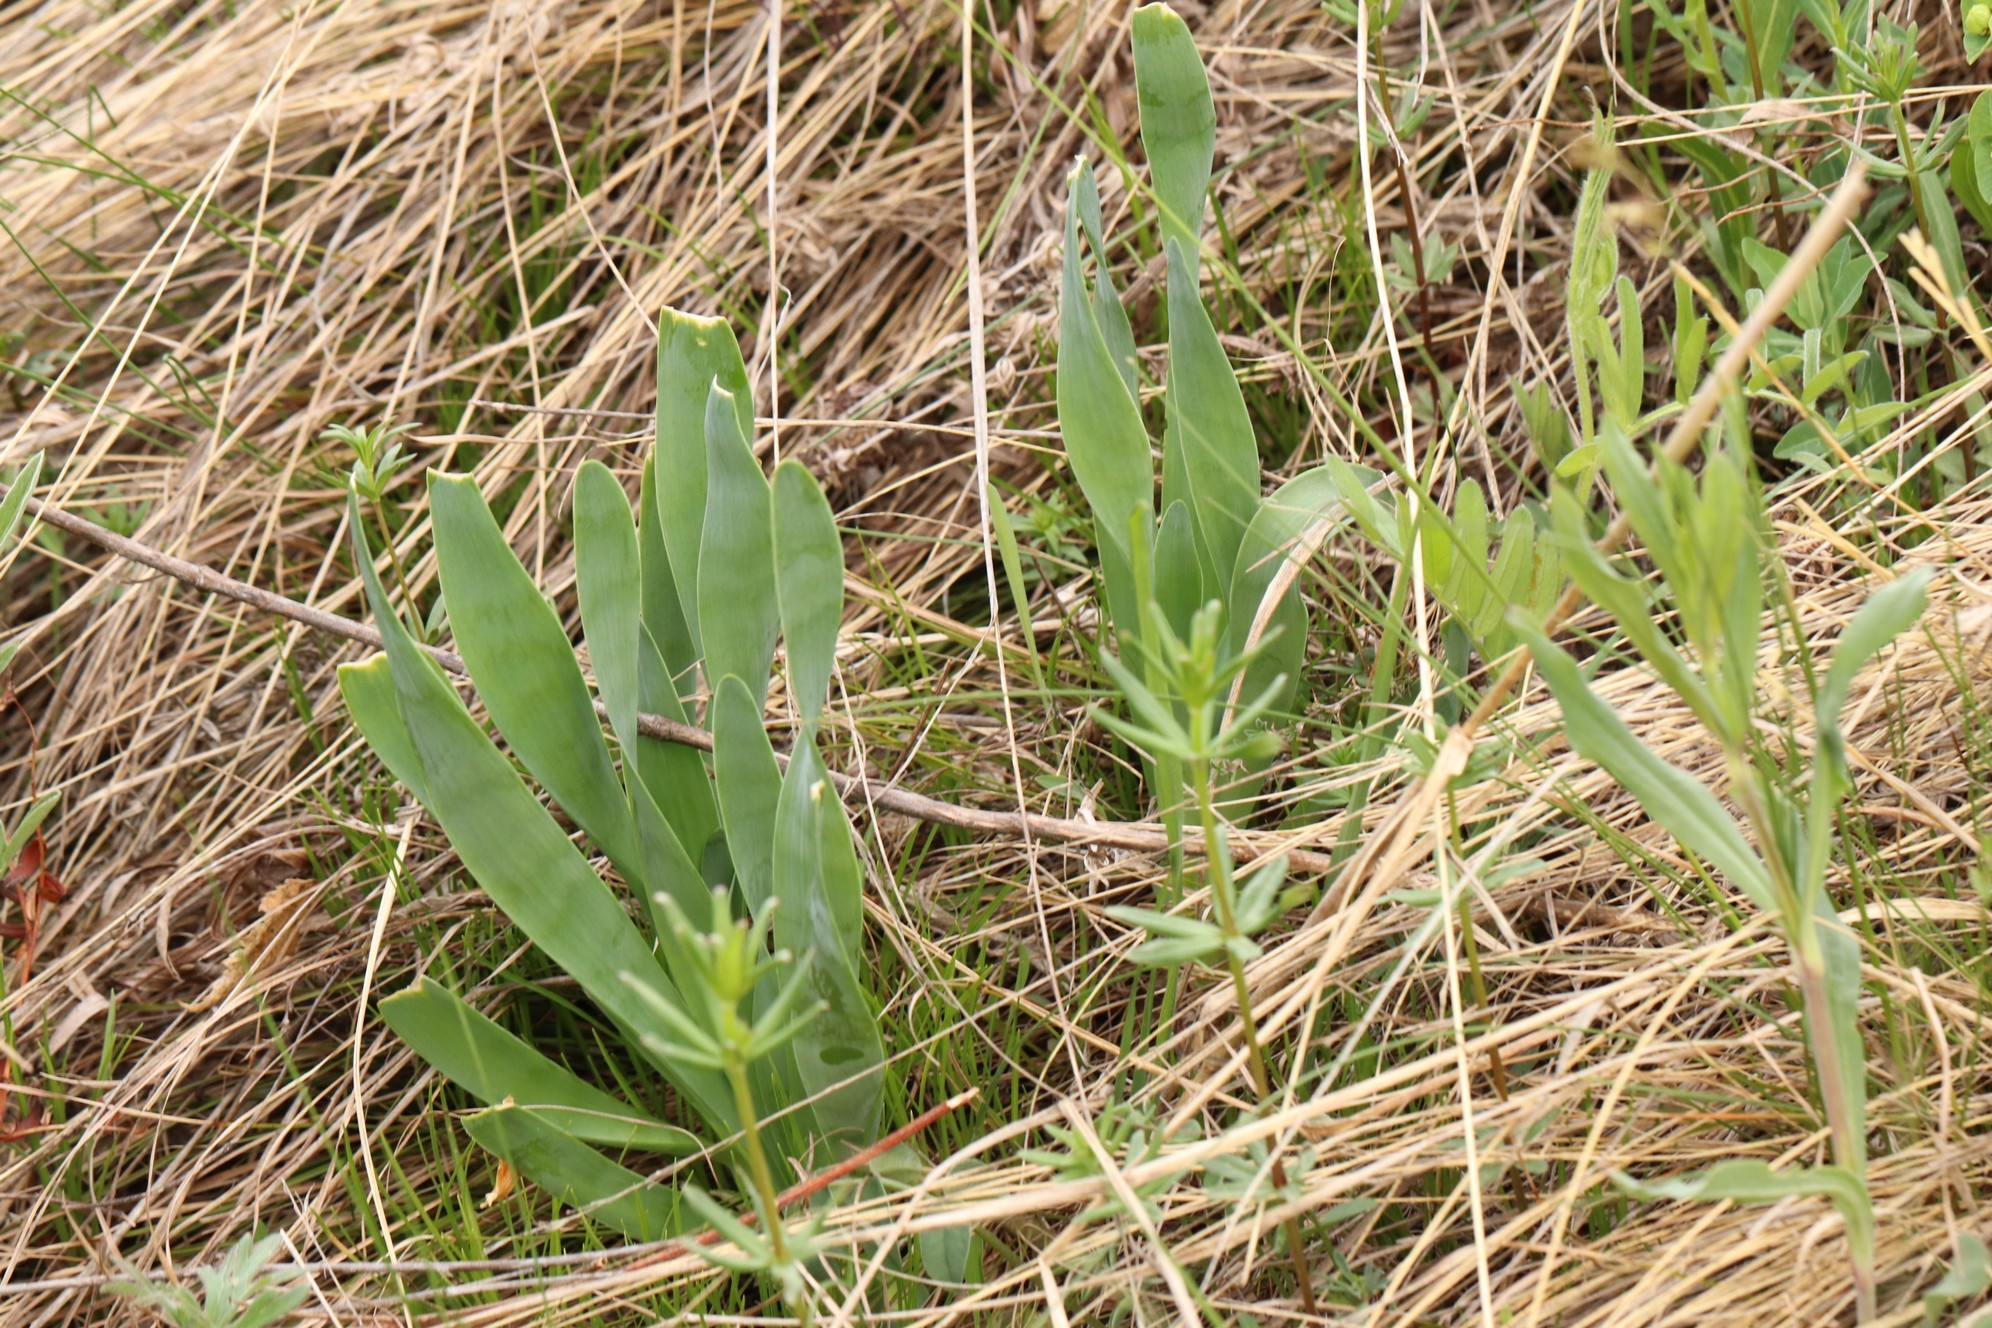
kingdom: Plantae
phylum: Tracheophyta
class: Liliopsida
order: Asparagales
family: Amaryllidaceae
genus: Allium
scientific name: Allium nutans
